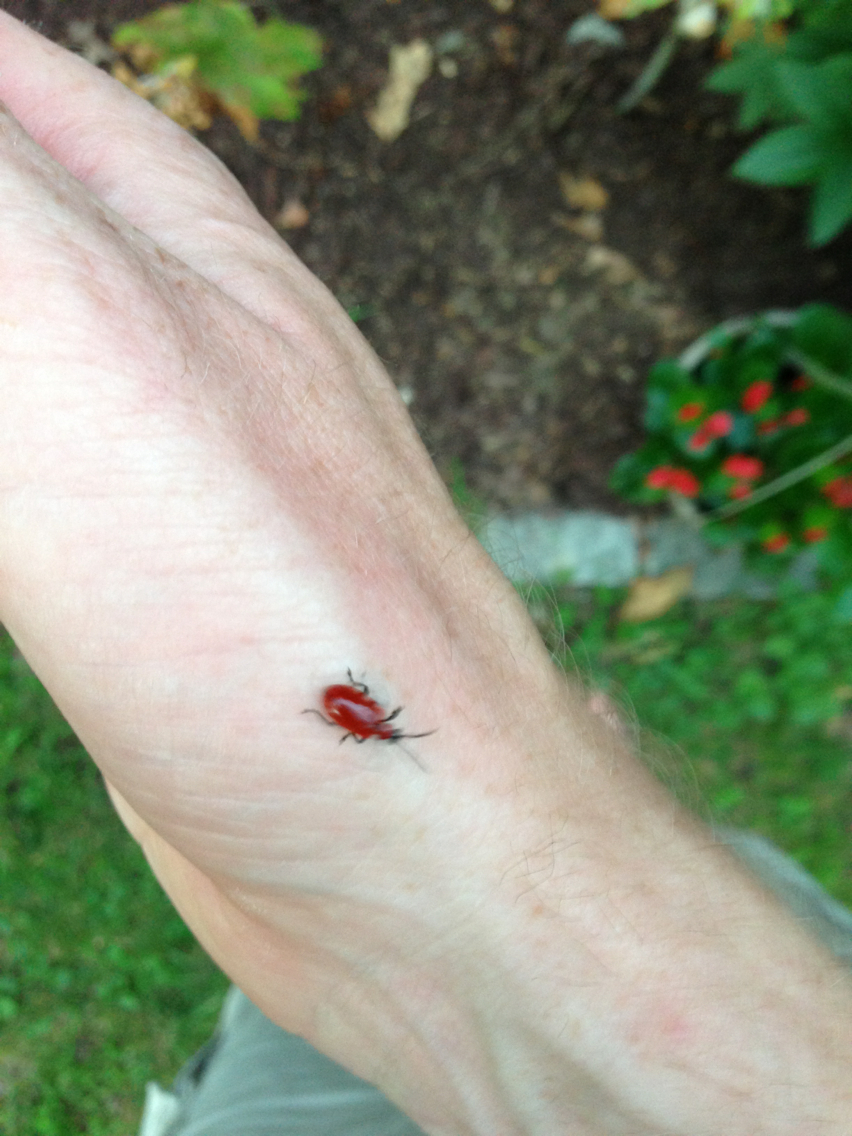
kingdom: Animalia
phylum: Arthropoda
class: Insecta
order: Coleoptera
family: Chrysomelidae
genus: Lilioceris
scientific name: Lilioceris lilii
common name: Lily beetle
